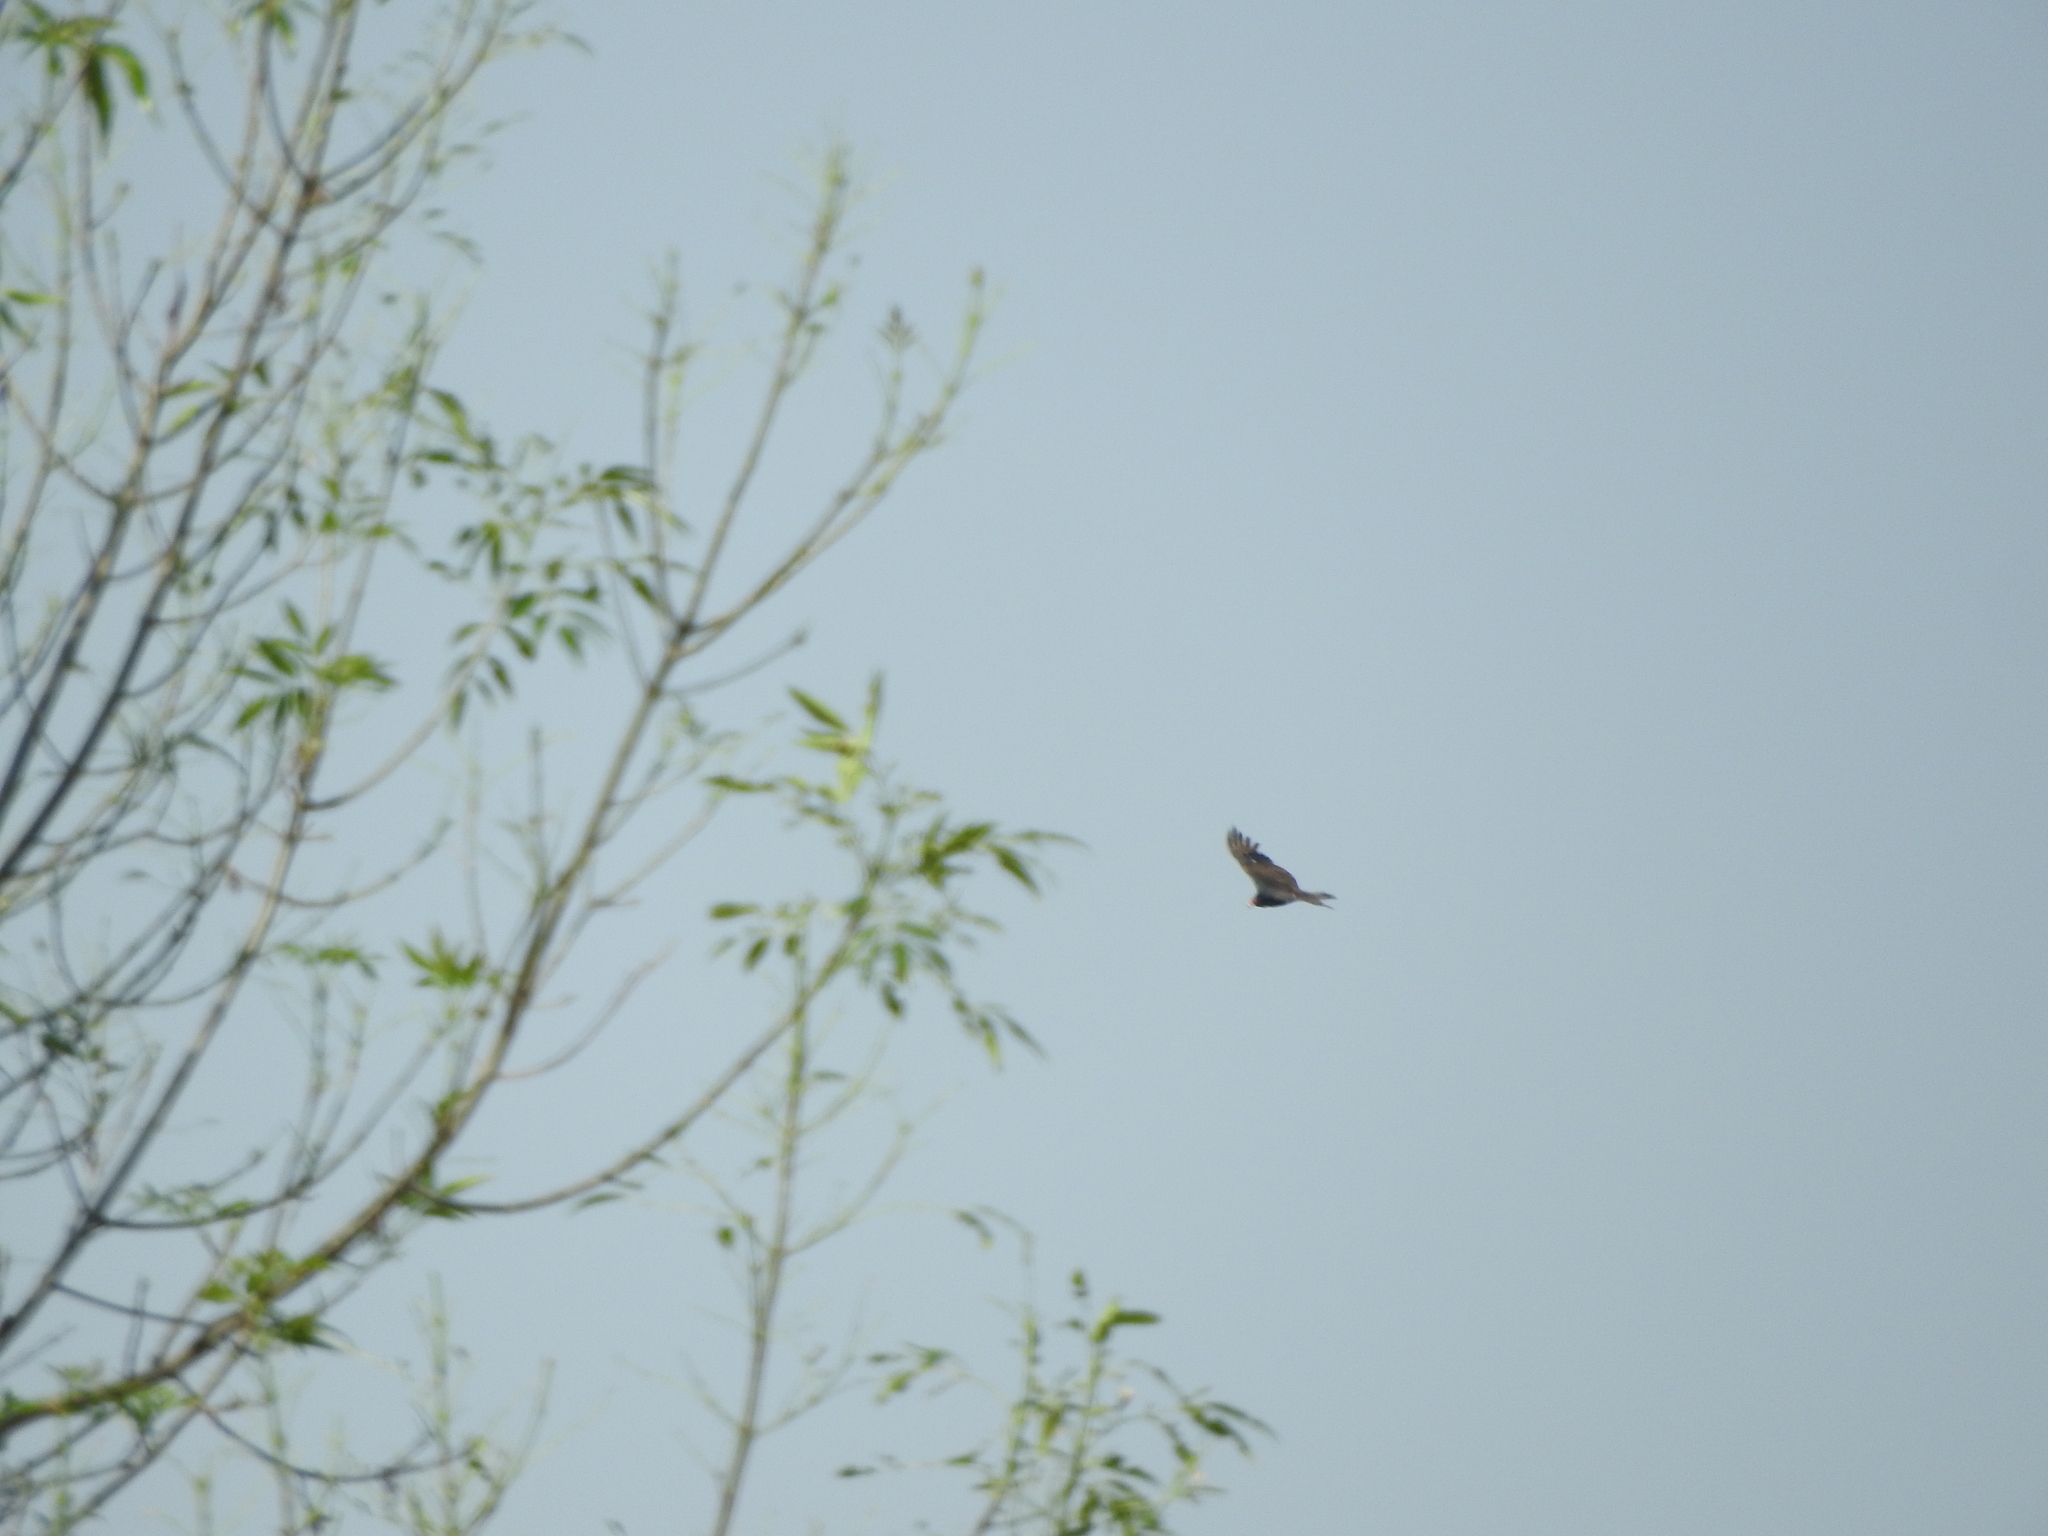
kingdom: Animalia
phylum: Chordata
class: Aves
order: Accipitriformes
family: Cathartidae
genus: Cathartes
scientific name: Cathartes aura
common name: Turkey vulture
